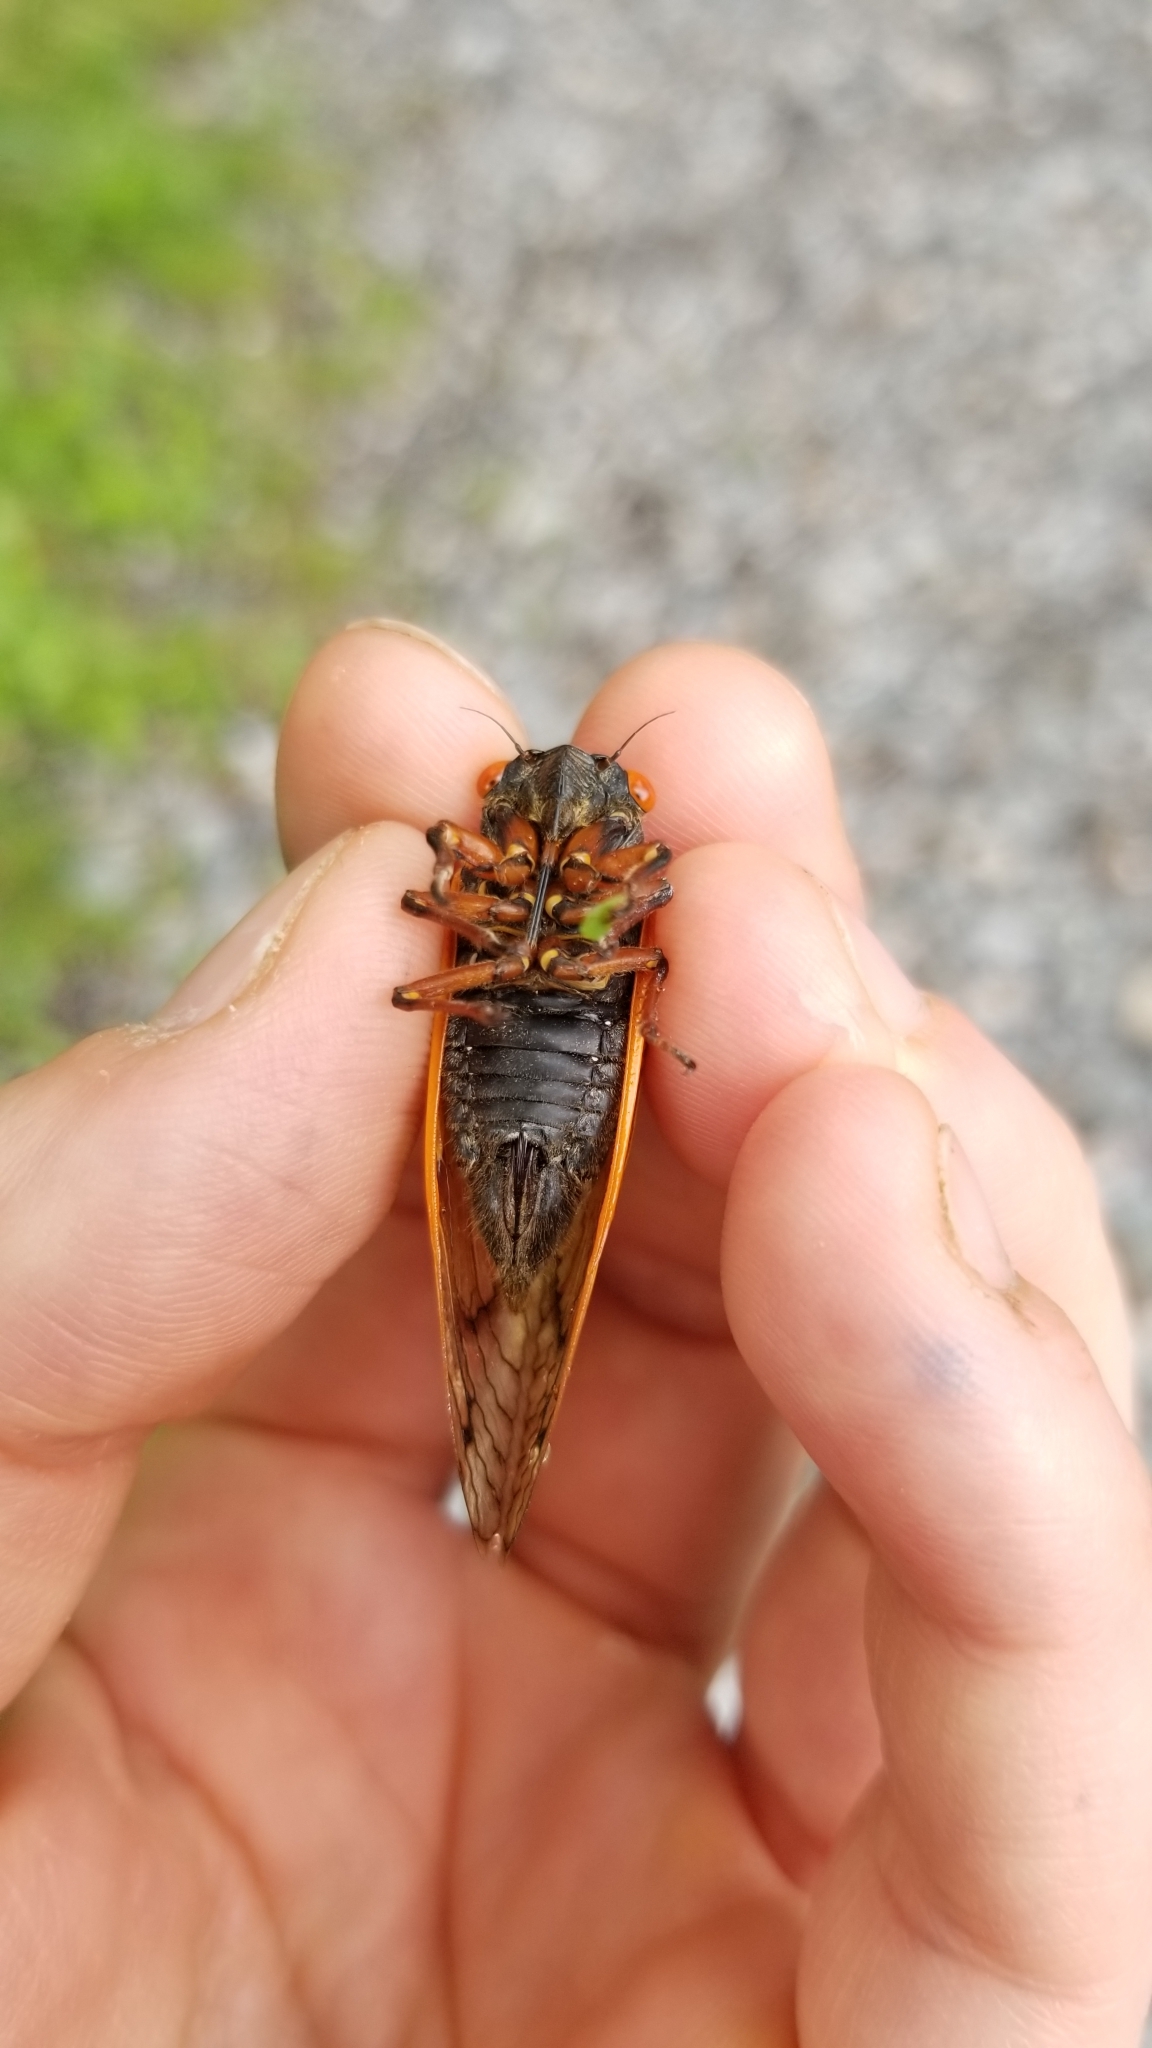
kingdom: Animalia
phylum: Arthropoda
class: Insecta
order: Hemiptera
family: Cicadidae
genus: Magicicada
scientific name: Magicicada cassini
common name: Cassin's 17-year cicada
